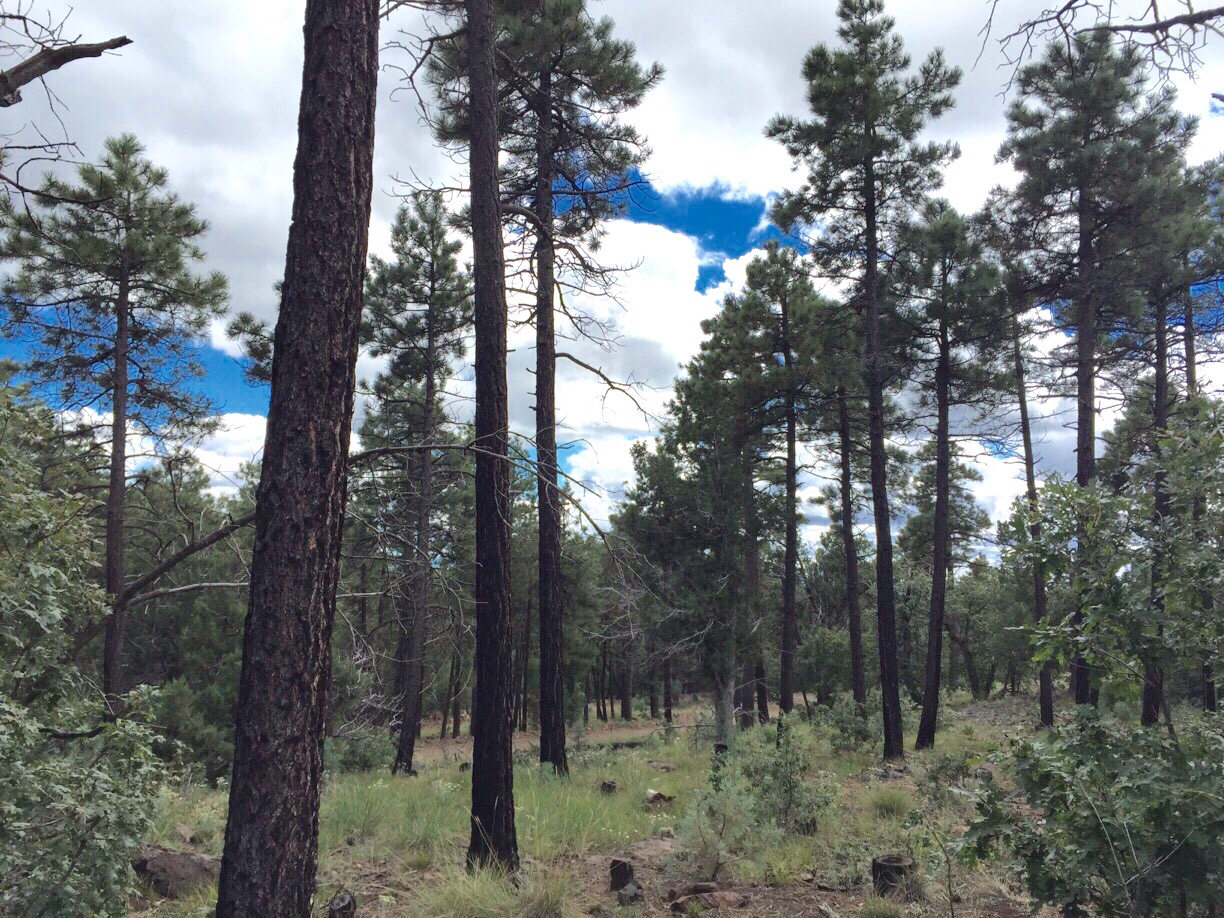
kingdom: Plantae
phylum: Tracheophyta
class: Pinopsida
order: Pinales
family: Pinaceae
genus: Pinus
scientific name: Pinus ponderosa
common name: Western yellow-pine
